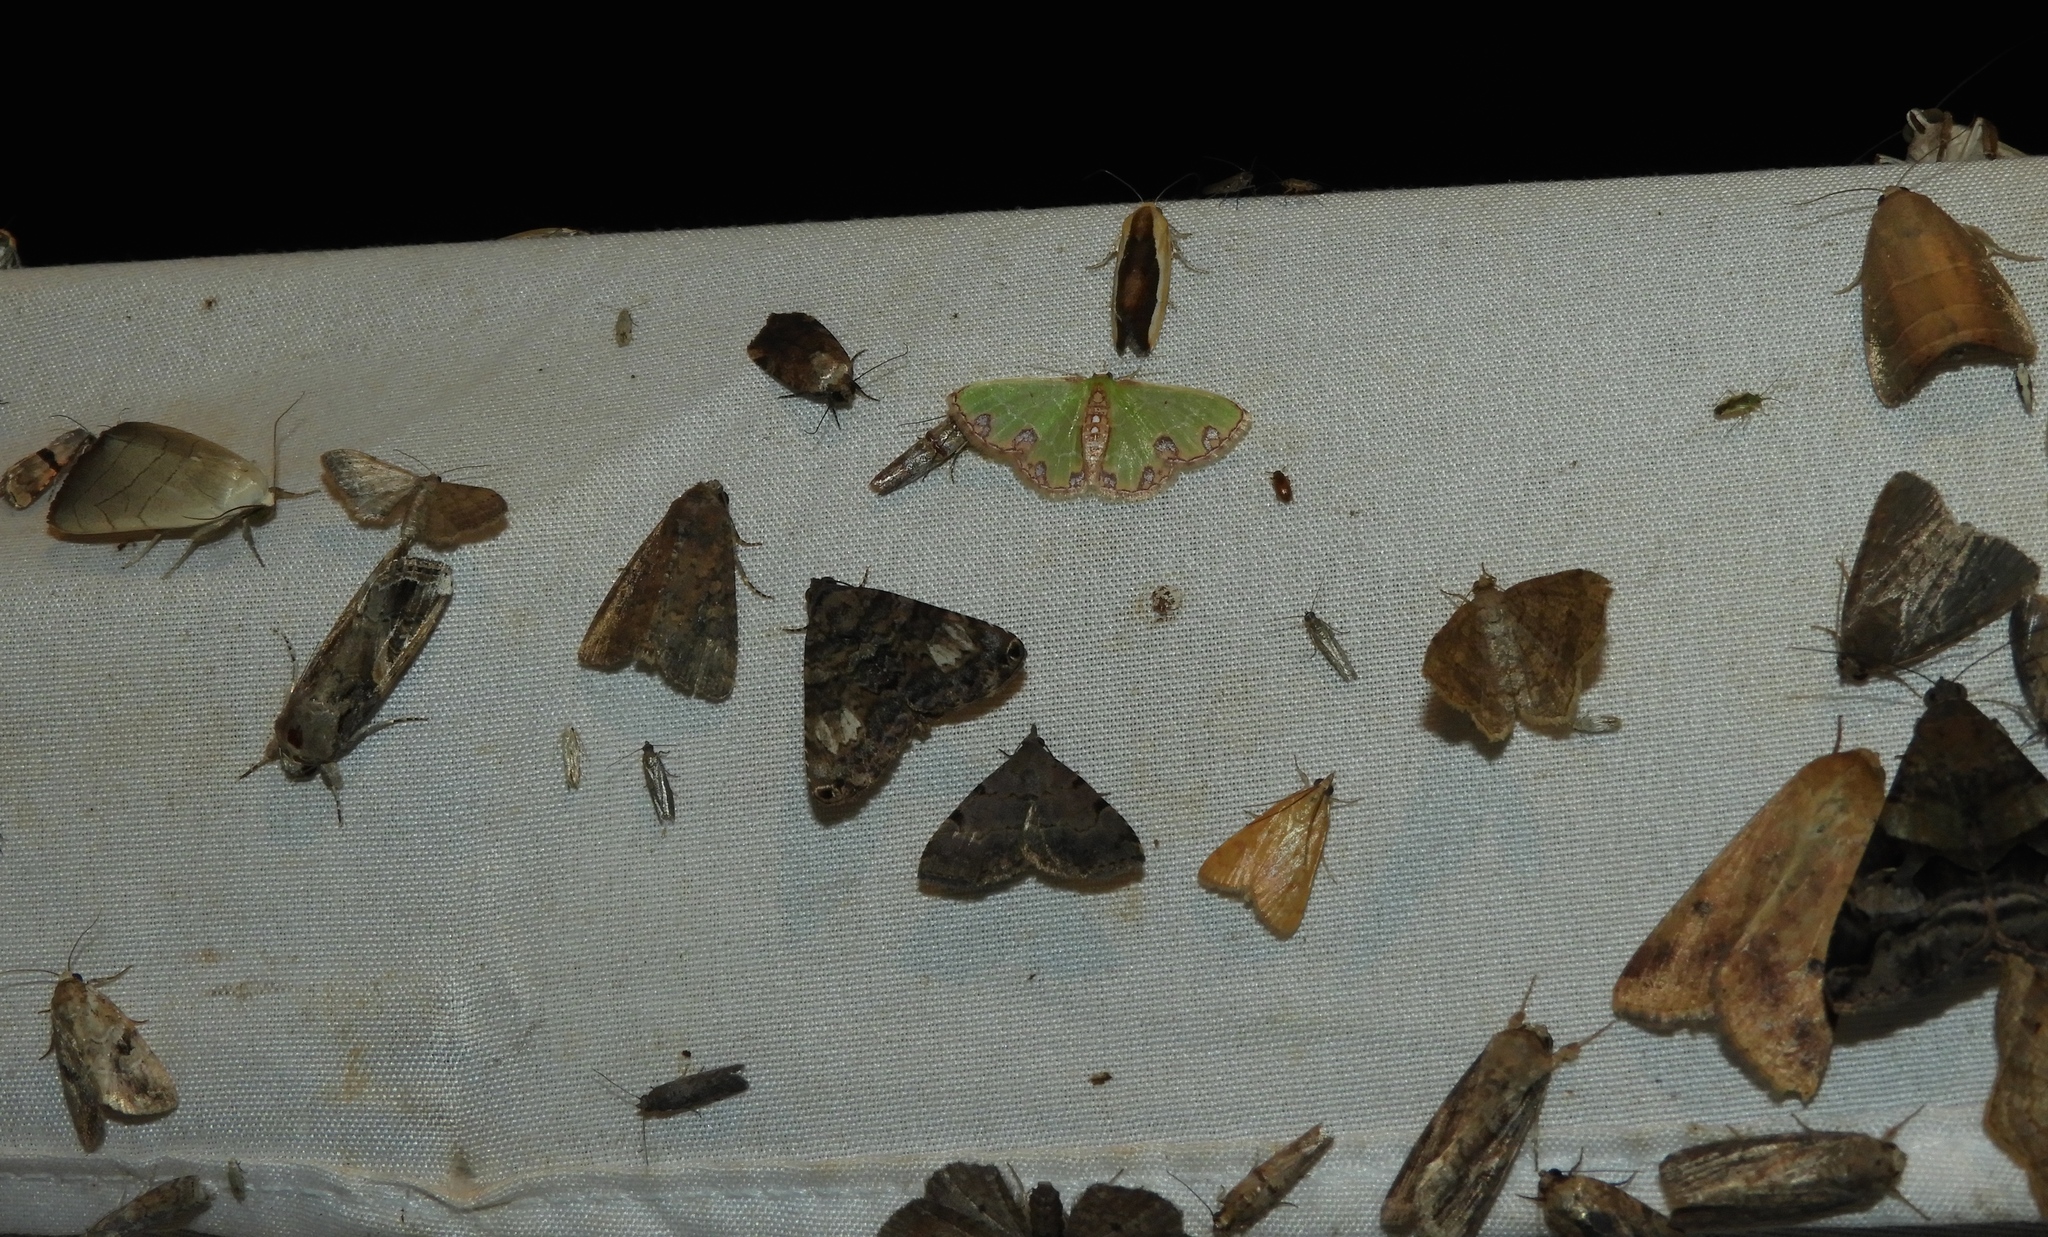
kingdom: Animalia
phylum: Arthropoda
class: Insecta
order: Lepidoptera
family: Noctuidae
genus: Spodoptera
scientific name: Spodoptera ornithogalli
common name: Yellow-striped armyworm
